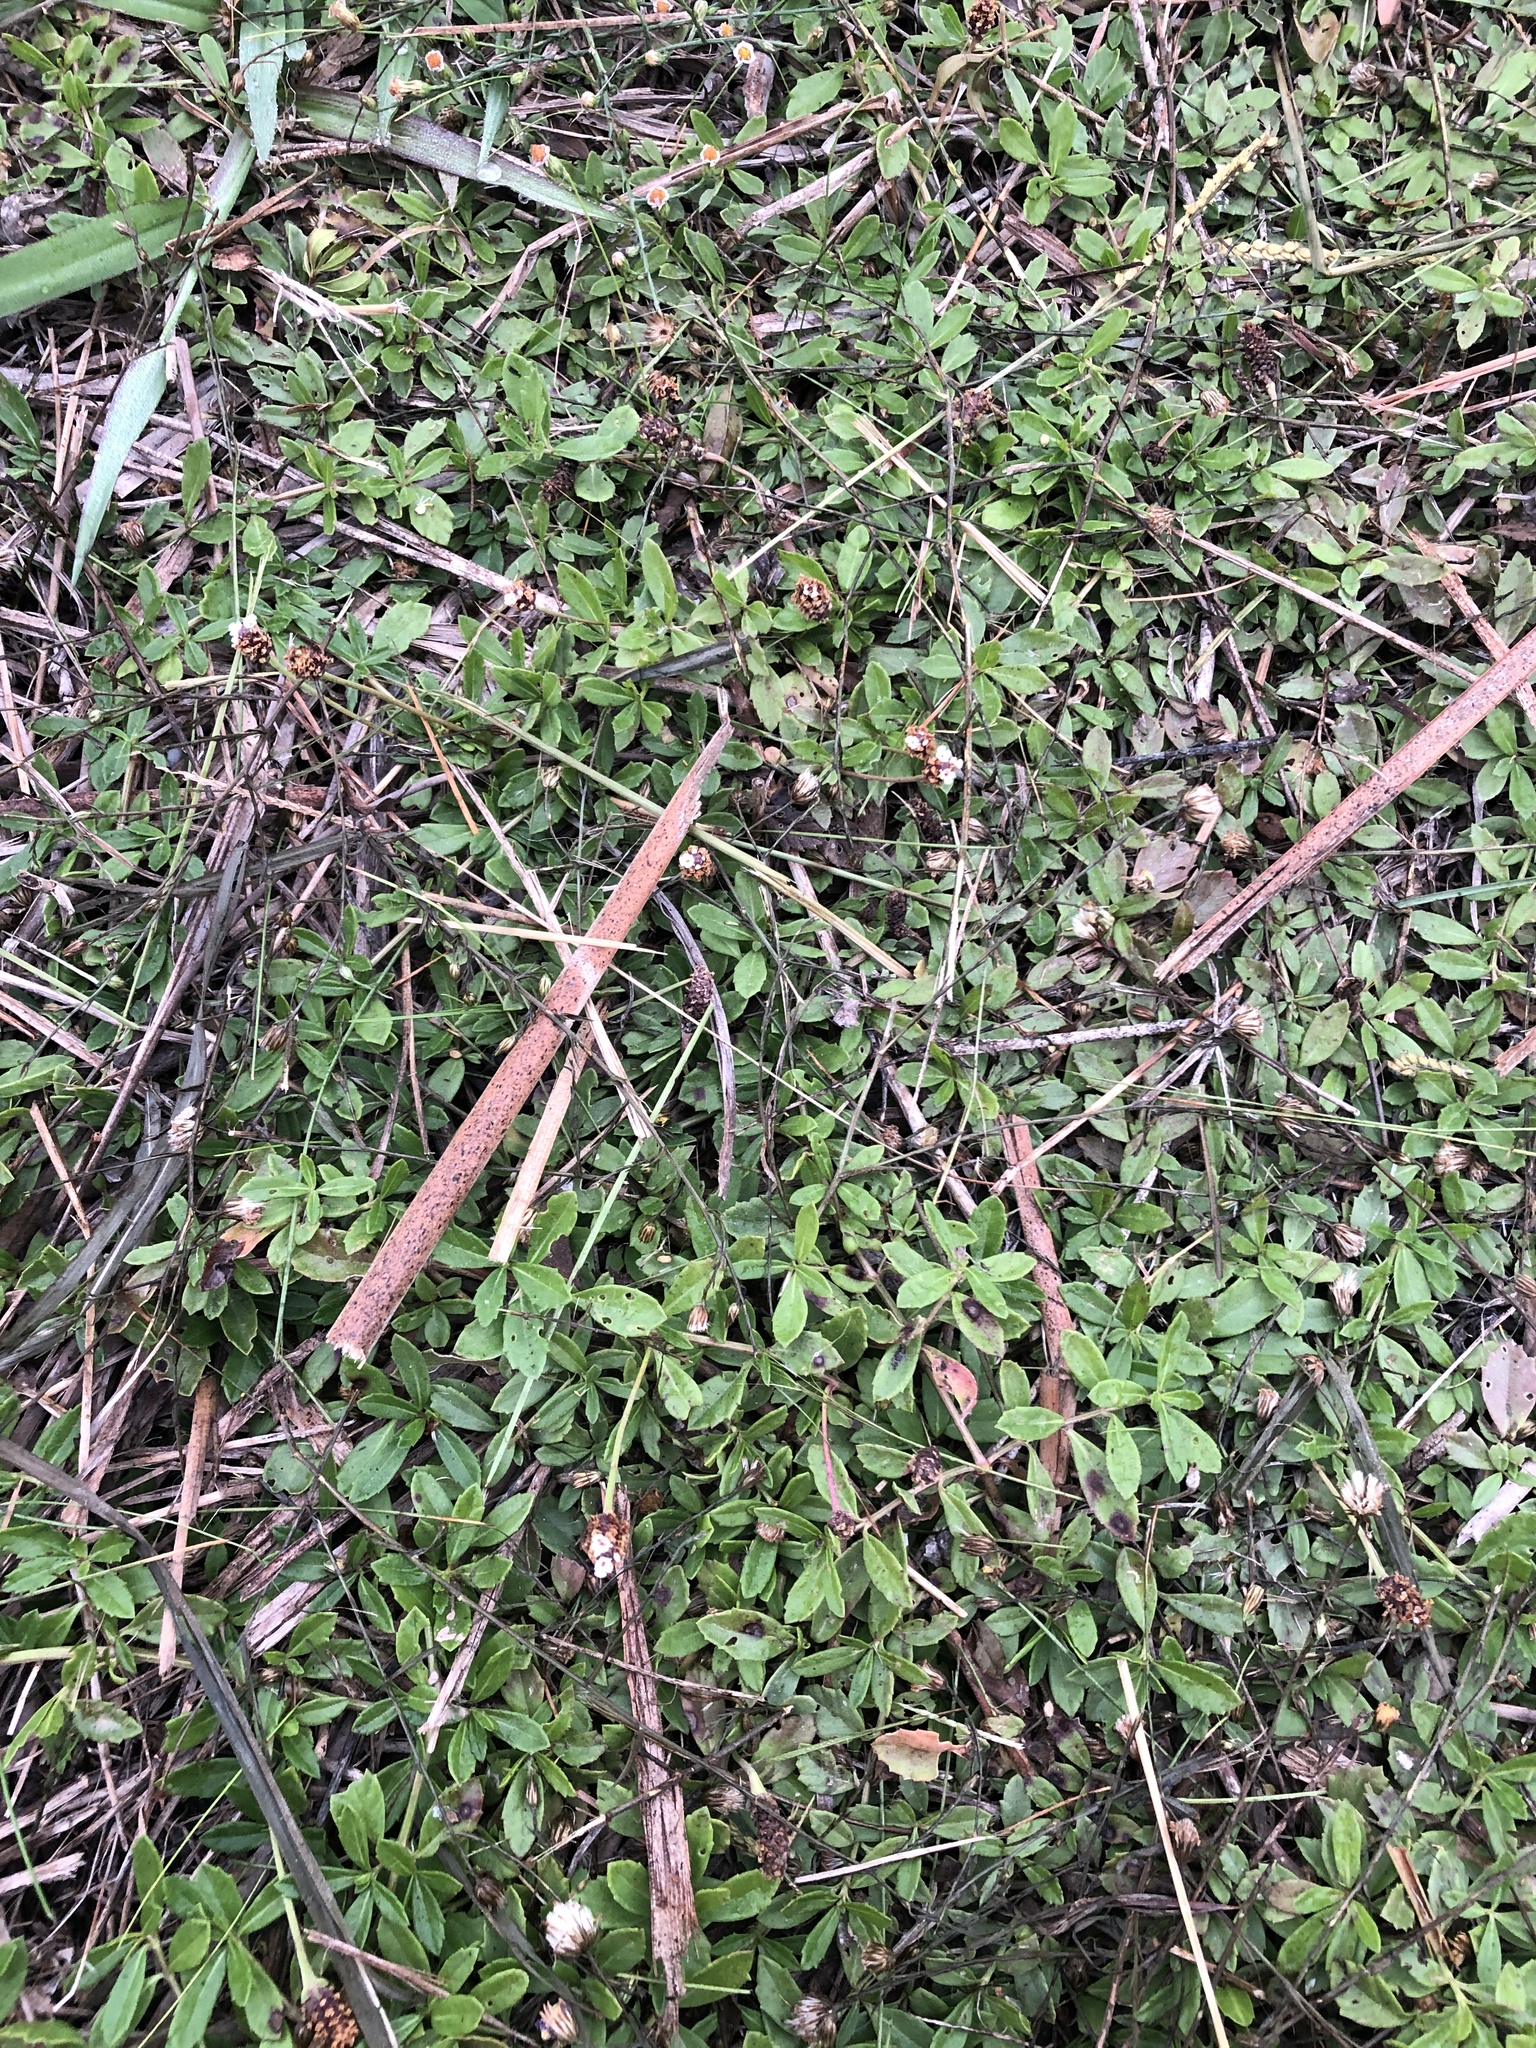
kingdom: Plantae
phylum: Tracheophyta
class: Magnoliopsida
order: Lamiales
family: Verbenaceae
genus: Phyla
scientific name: Phyla nodiflora
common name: Frogfruit
